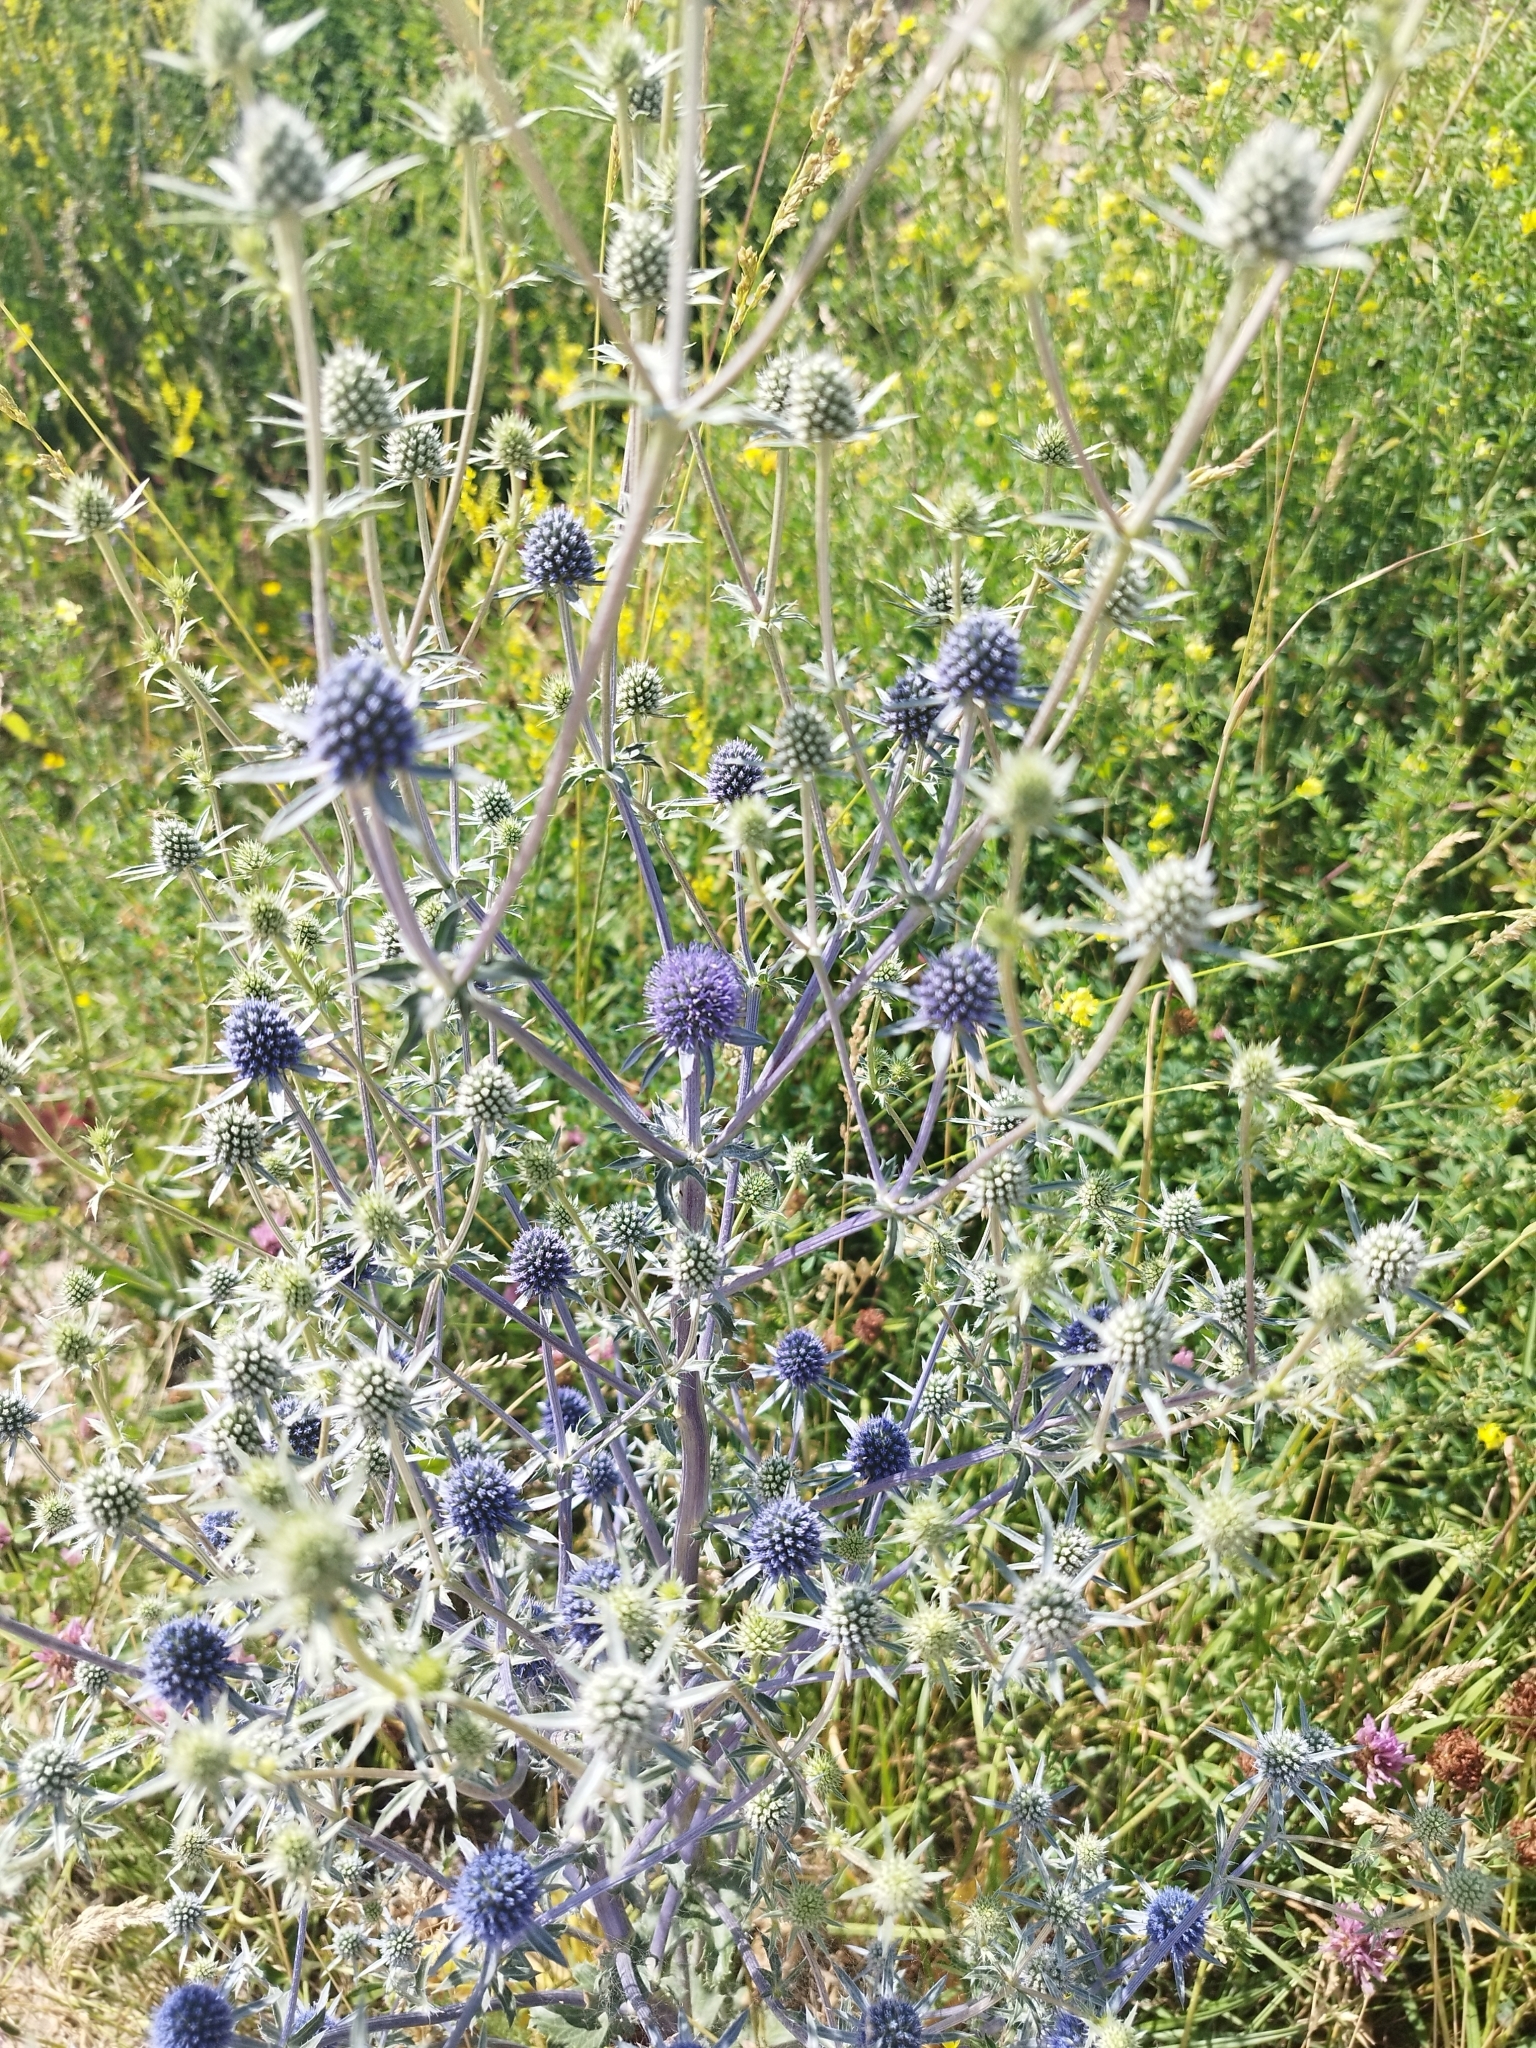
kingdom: Plantae
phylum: Tracheophyta
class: Magnoliopsida
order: Apiales
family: Apiaceae
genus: Eryngium
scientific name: Eryngium planum
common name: Blue eryngo
